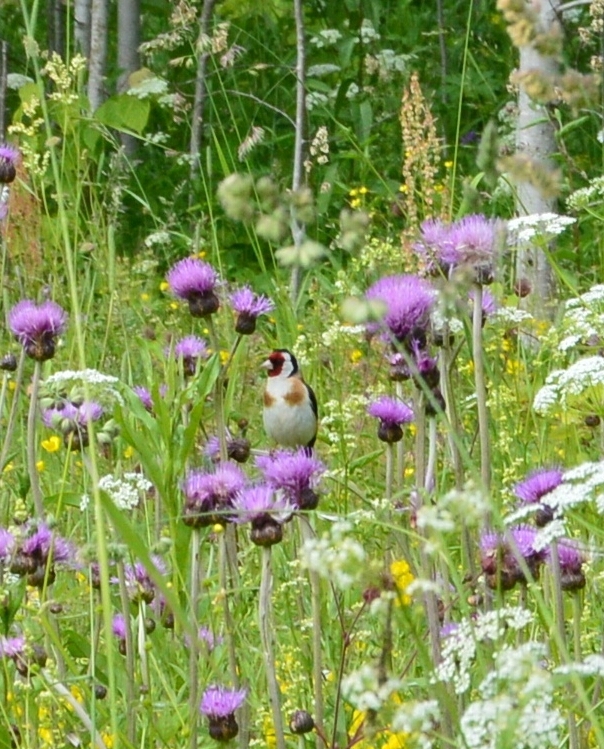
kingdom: Animalia
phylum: Chordata
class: Aves
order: Passeriformes
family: Fringillidae
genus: Carduelis
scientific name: Carduelis carduelis
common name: European goldfinch
